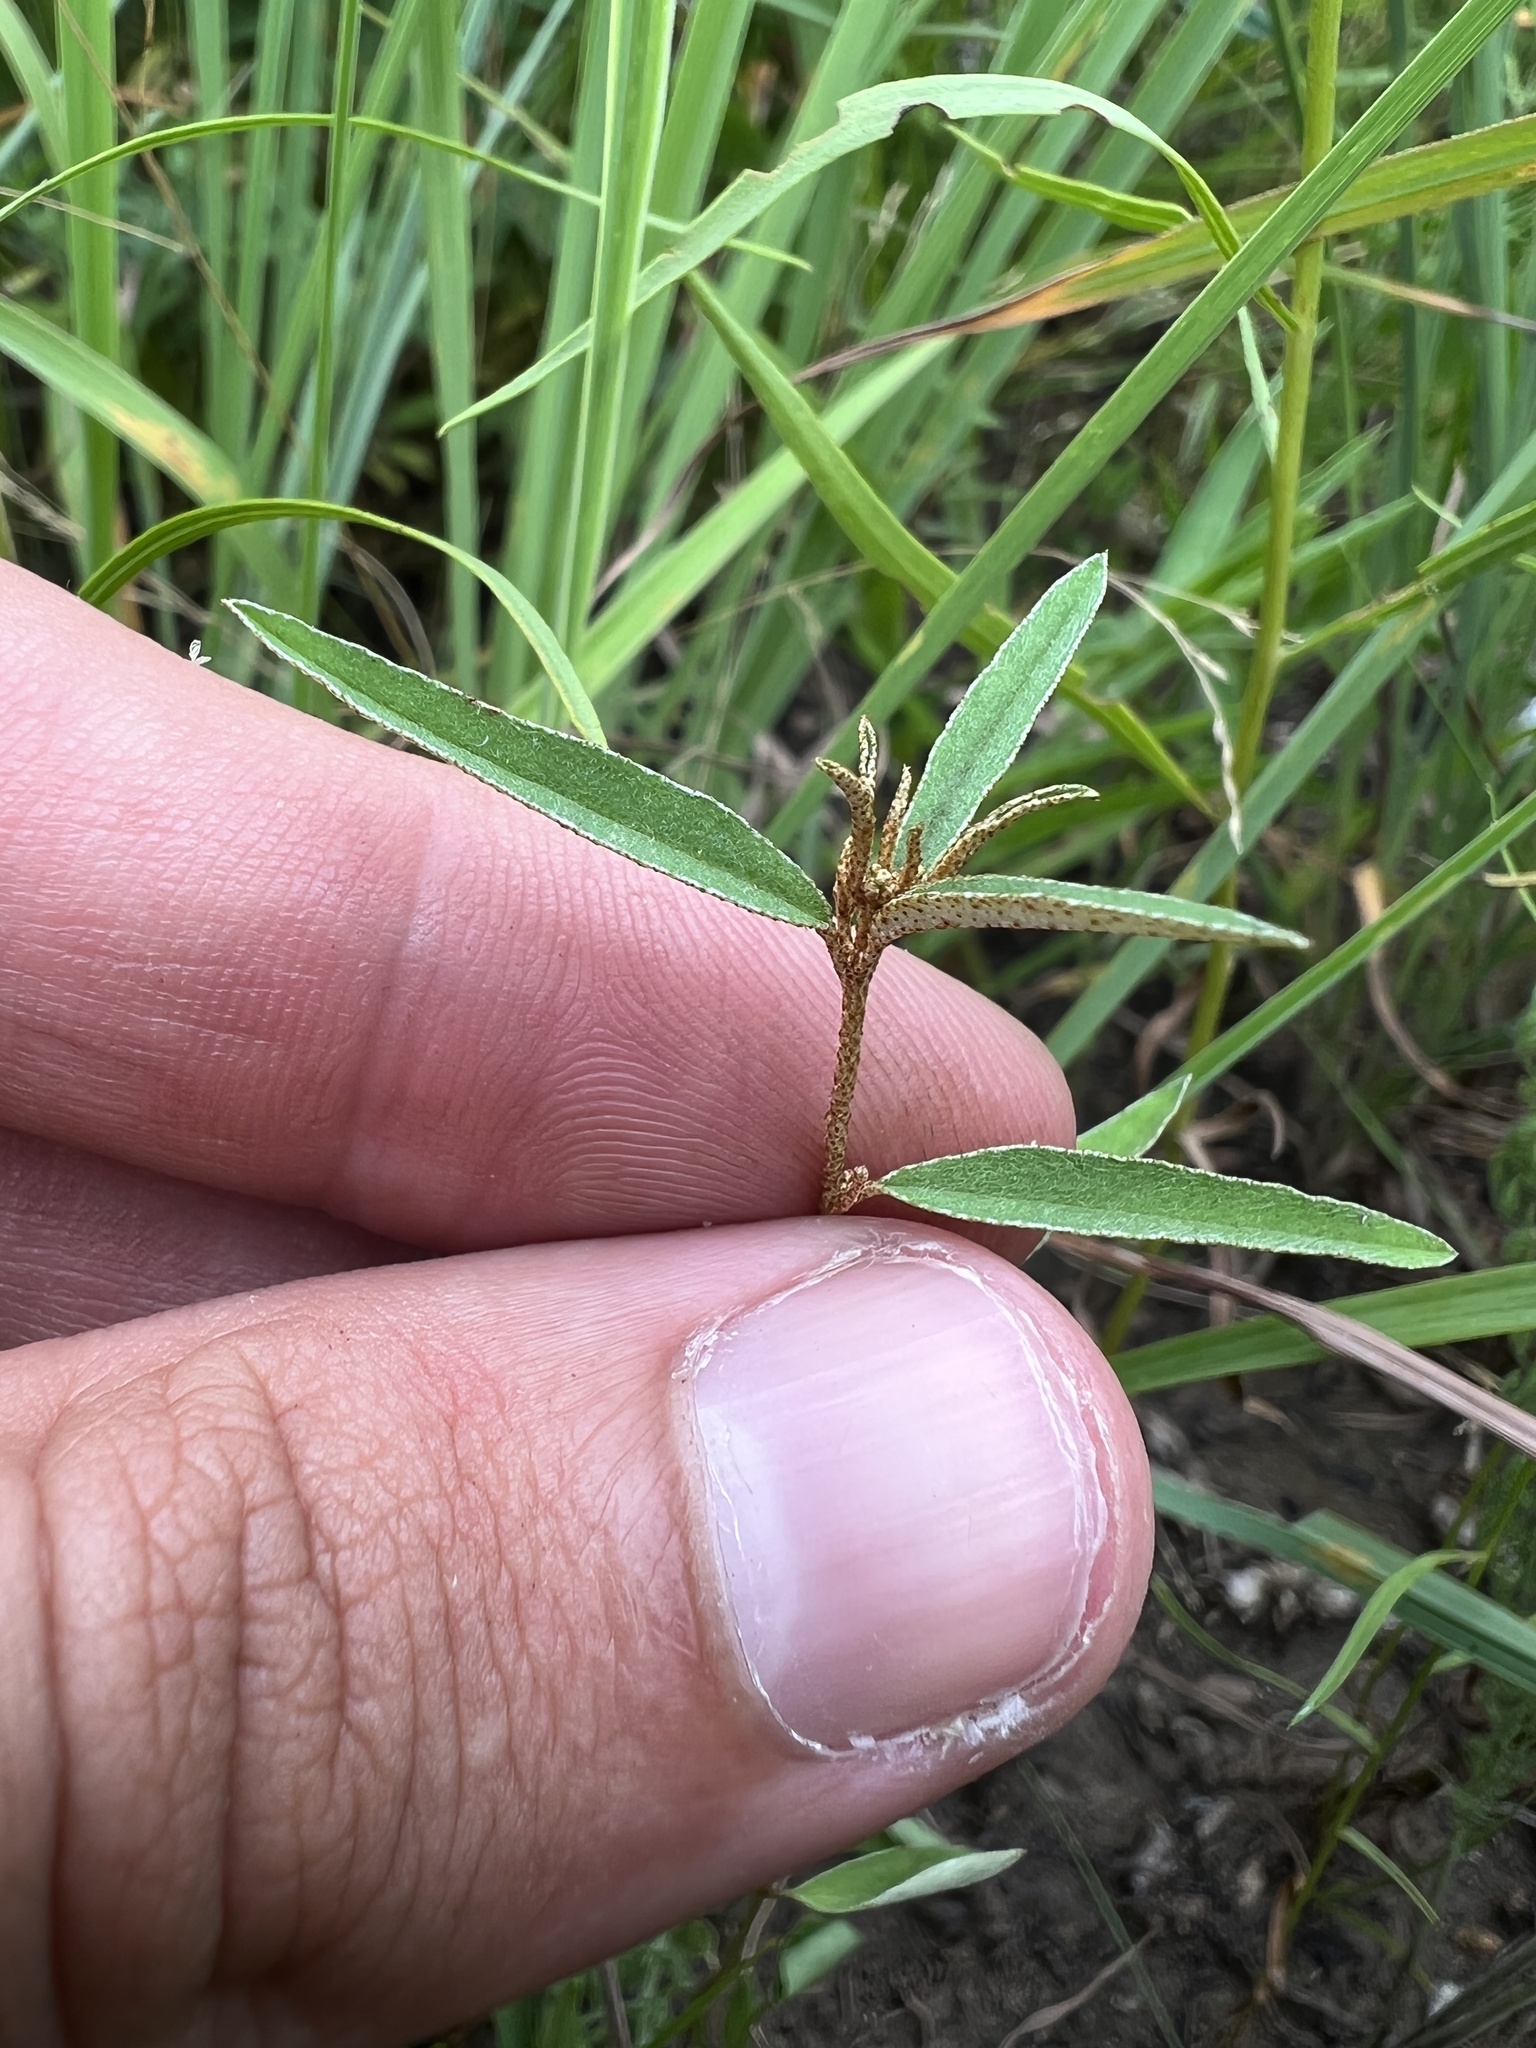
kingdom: Plantae
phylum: Tracheophyta
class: Magnoliopsida
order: Malpighiales
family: Euphorbiaceae
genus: Croton
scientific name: Croton michauxii
